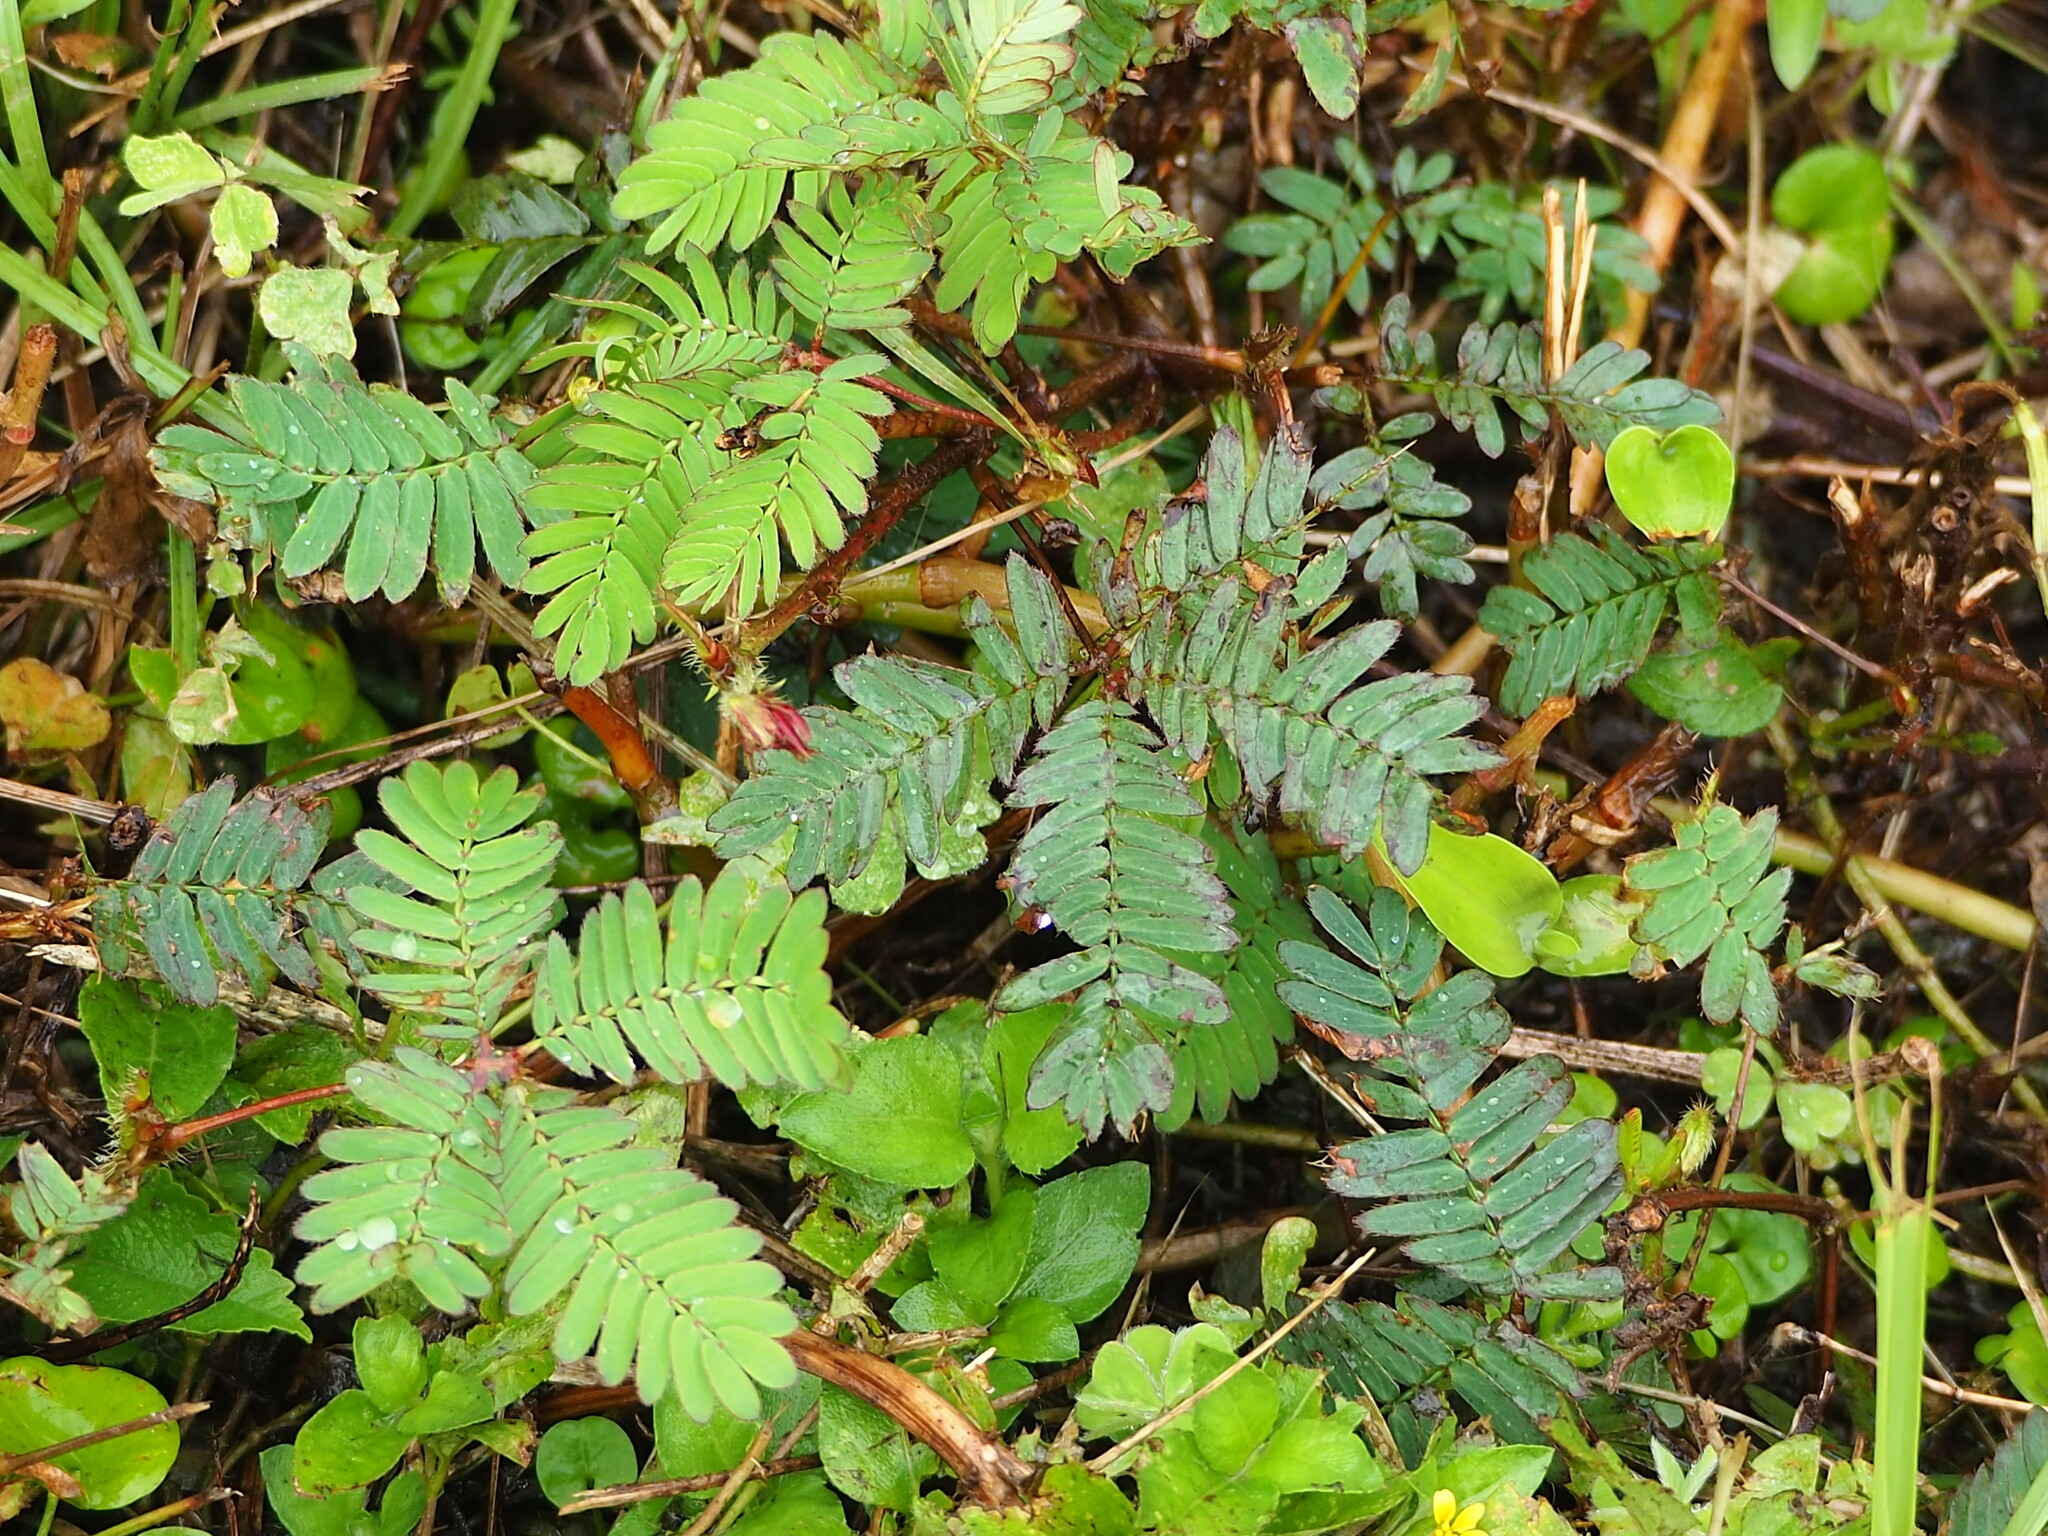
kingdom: Plantae
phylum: Tracheophyta
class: Magnoliopsida
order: Fabales
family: Fabaceae
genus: Mimosa
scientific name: Mimosa pudica
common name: Sensitive plant
